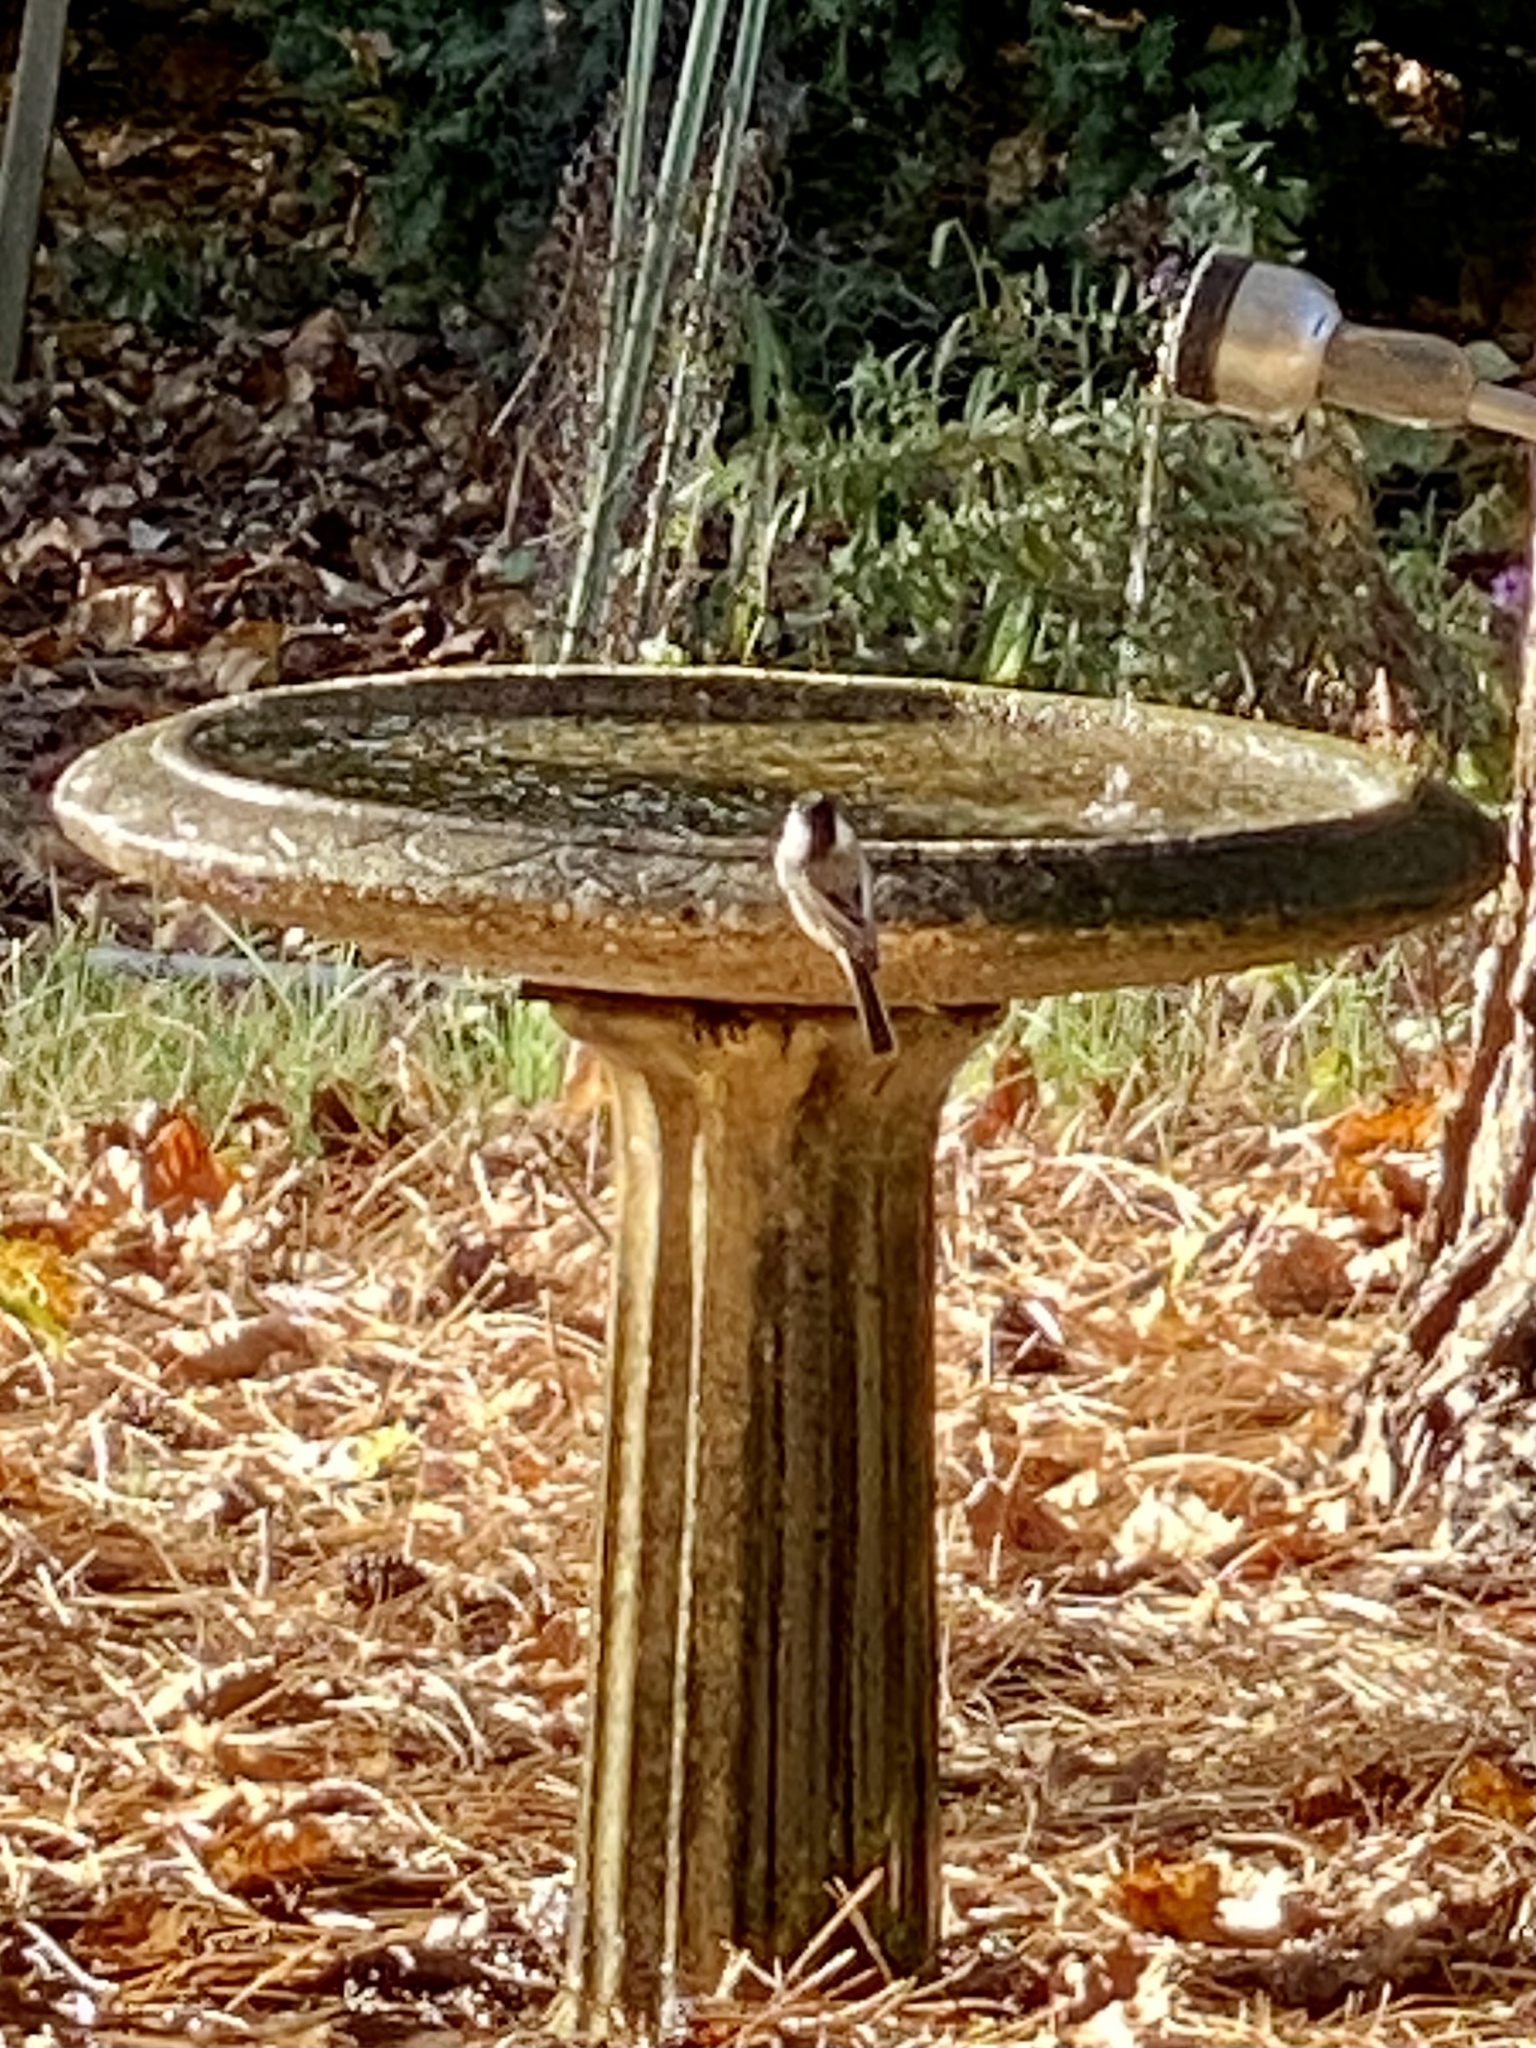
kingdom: Animalia
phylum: Chordata
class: Aves
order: Passeriformes
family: Paridae
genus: Poecile
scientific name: Poecile atricapillus
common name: Black-capped chickadee
